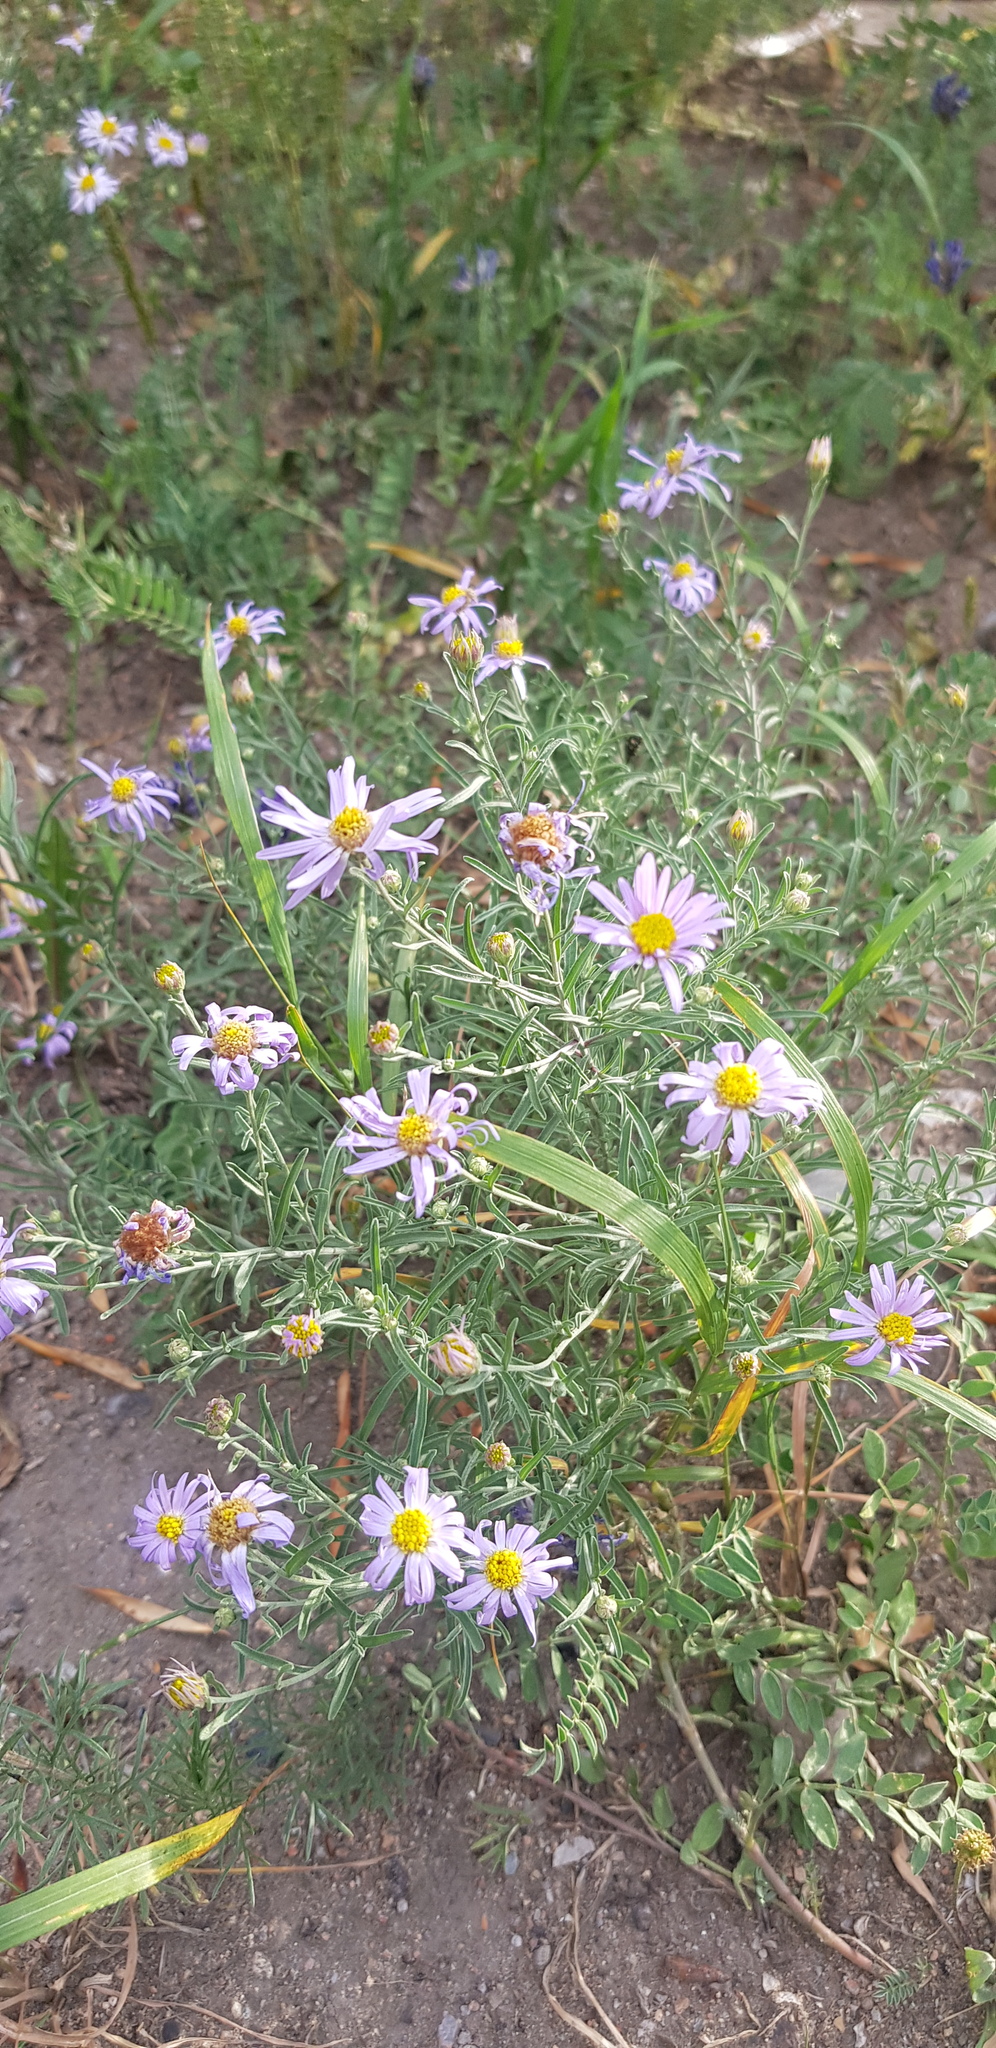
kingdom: Plantae
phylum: Tracheophyta
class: Magnoliopsida
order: Asterales
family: Asteraceae
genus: Heteropappus
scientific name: Heteropappus altaicus
